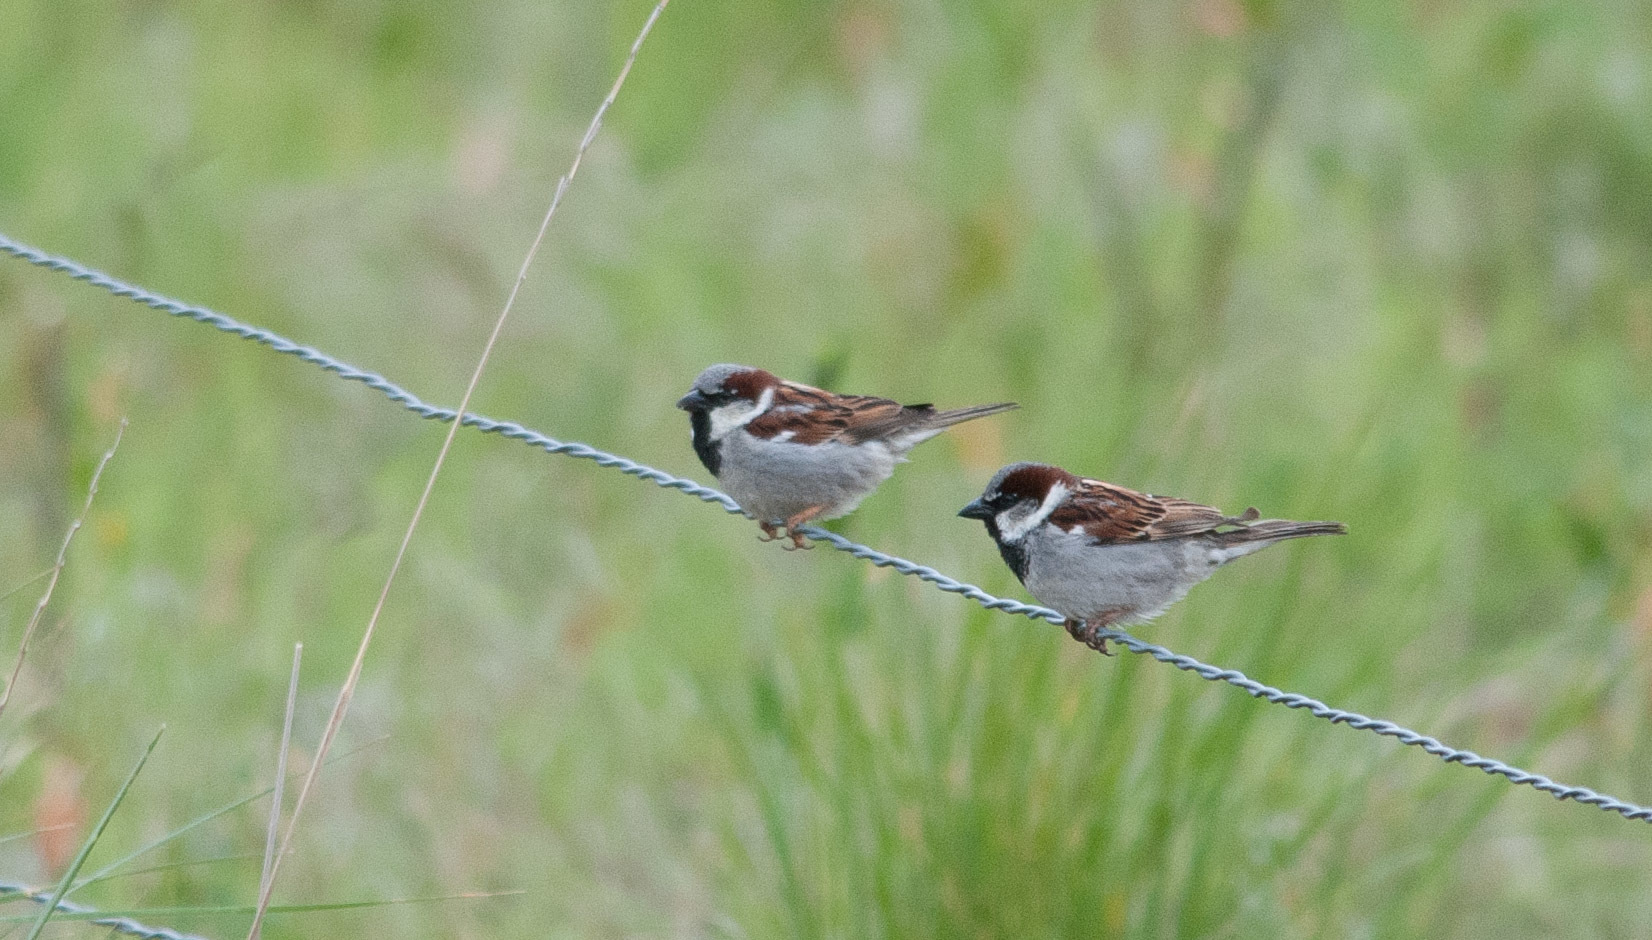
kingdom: Animalia
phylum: Chordata
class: Aves
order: Passeriformes
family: Passeridae
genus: Passer
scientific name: Passer domesticus
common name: House sparrow
